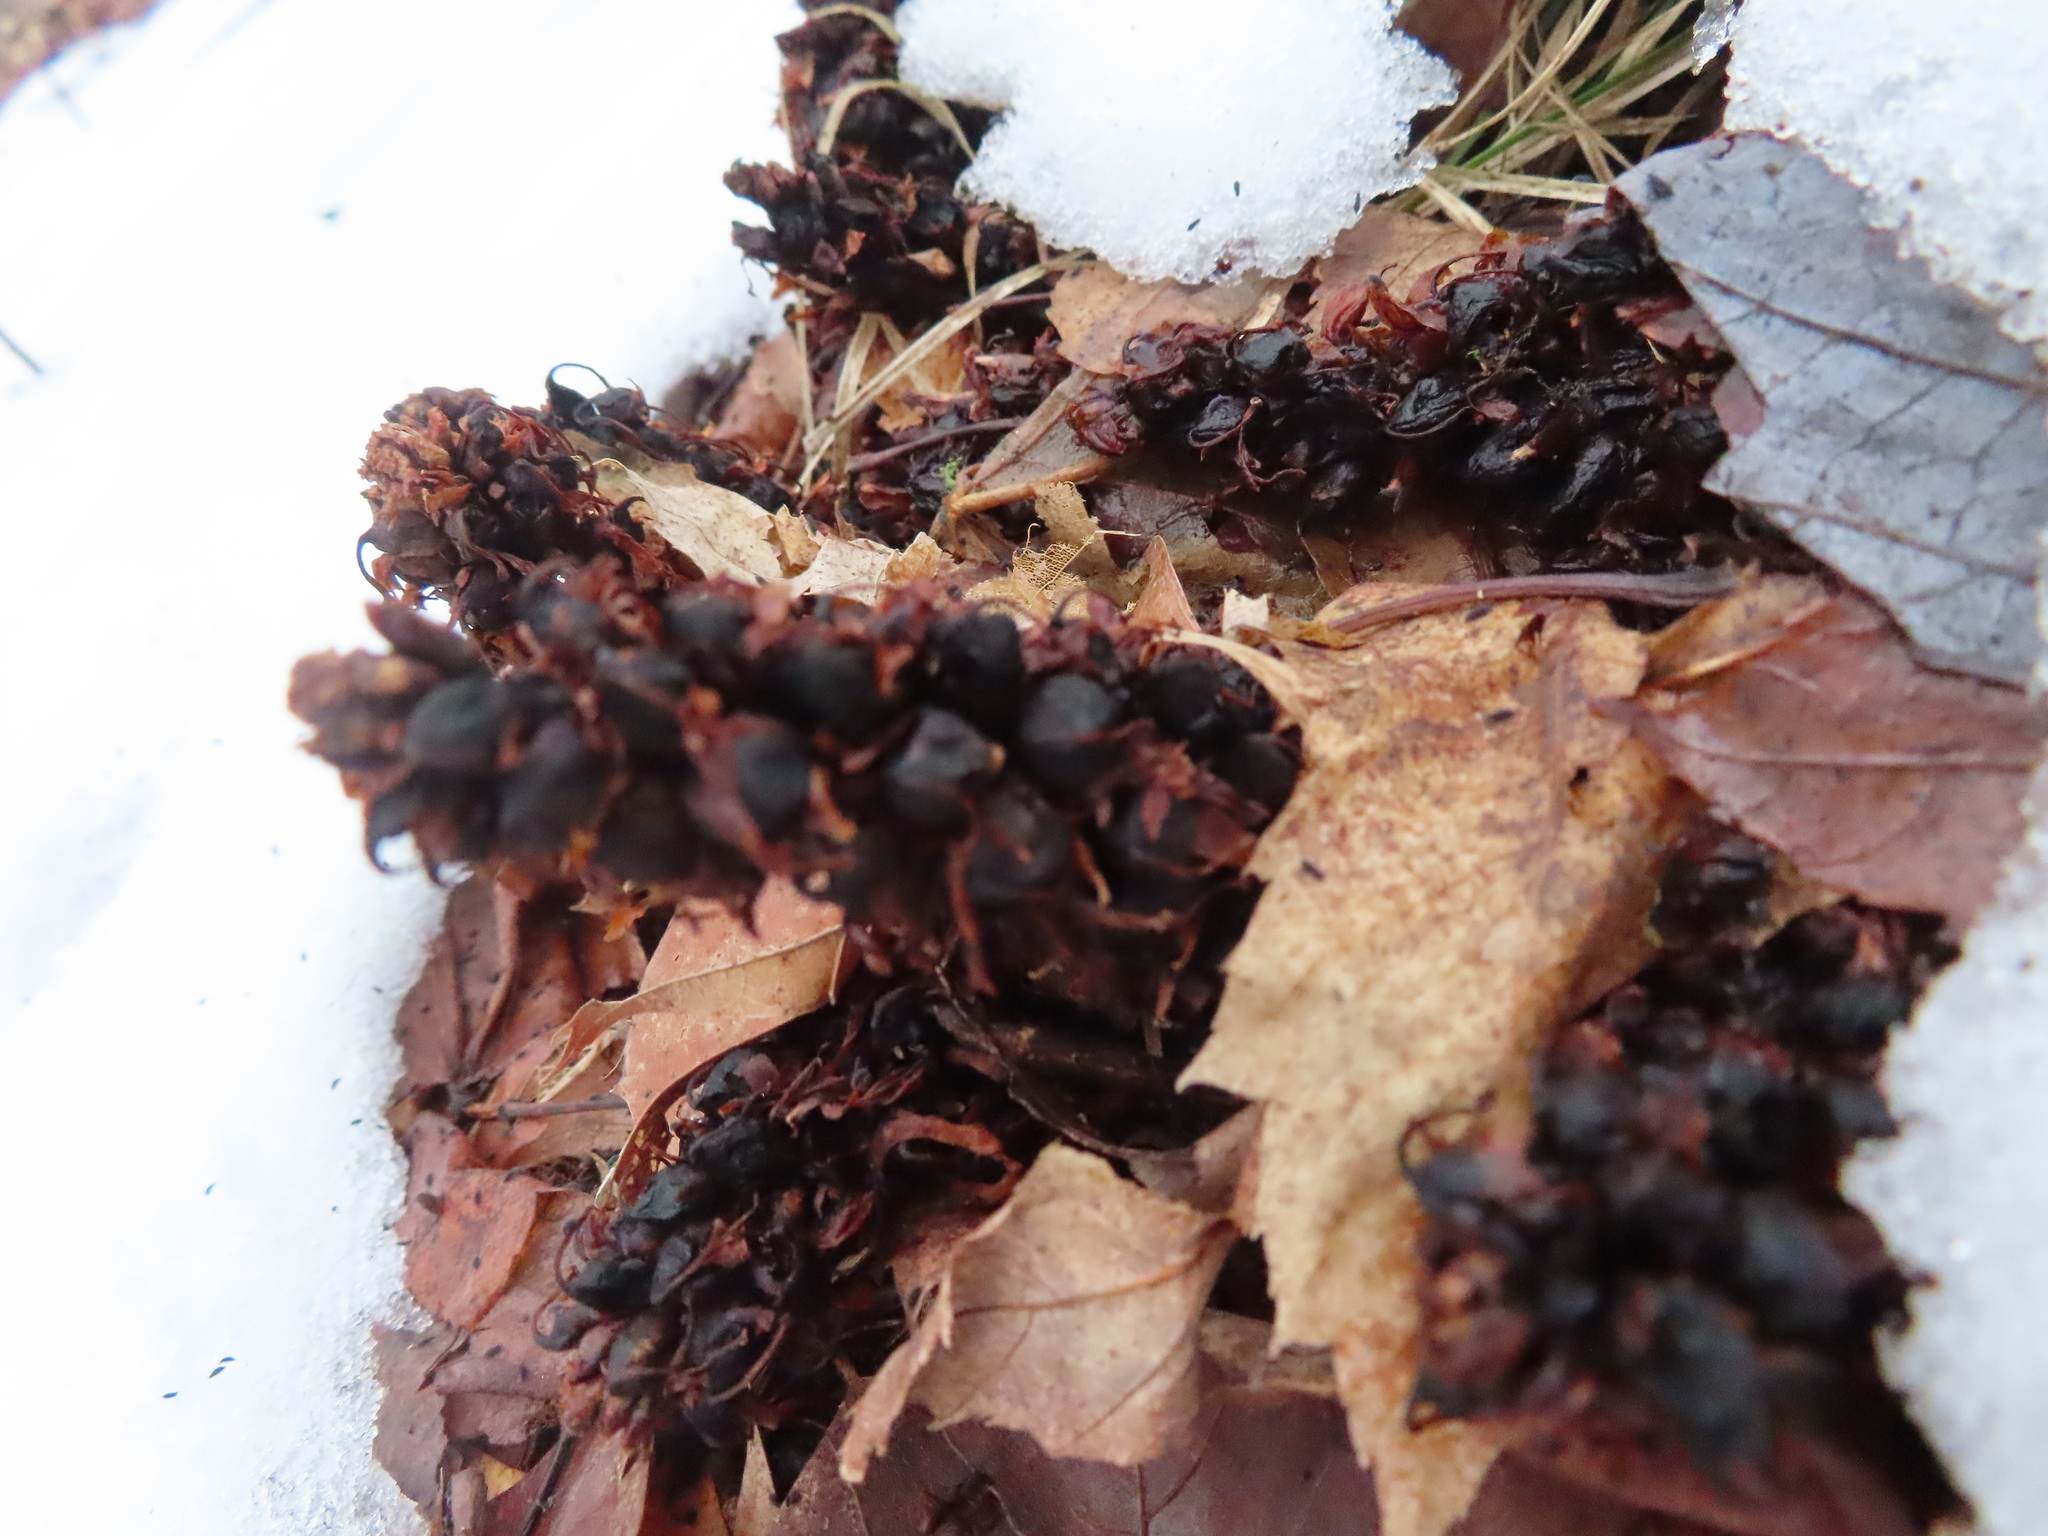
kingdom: Plantae
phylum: Tracheophyta
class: Magnoliopsida
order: Lamiales
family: Orobanchaceae
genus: Conopholis
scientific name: Conopholis americana
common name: American cancer-root
